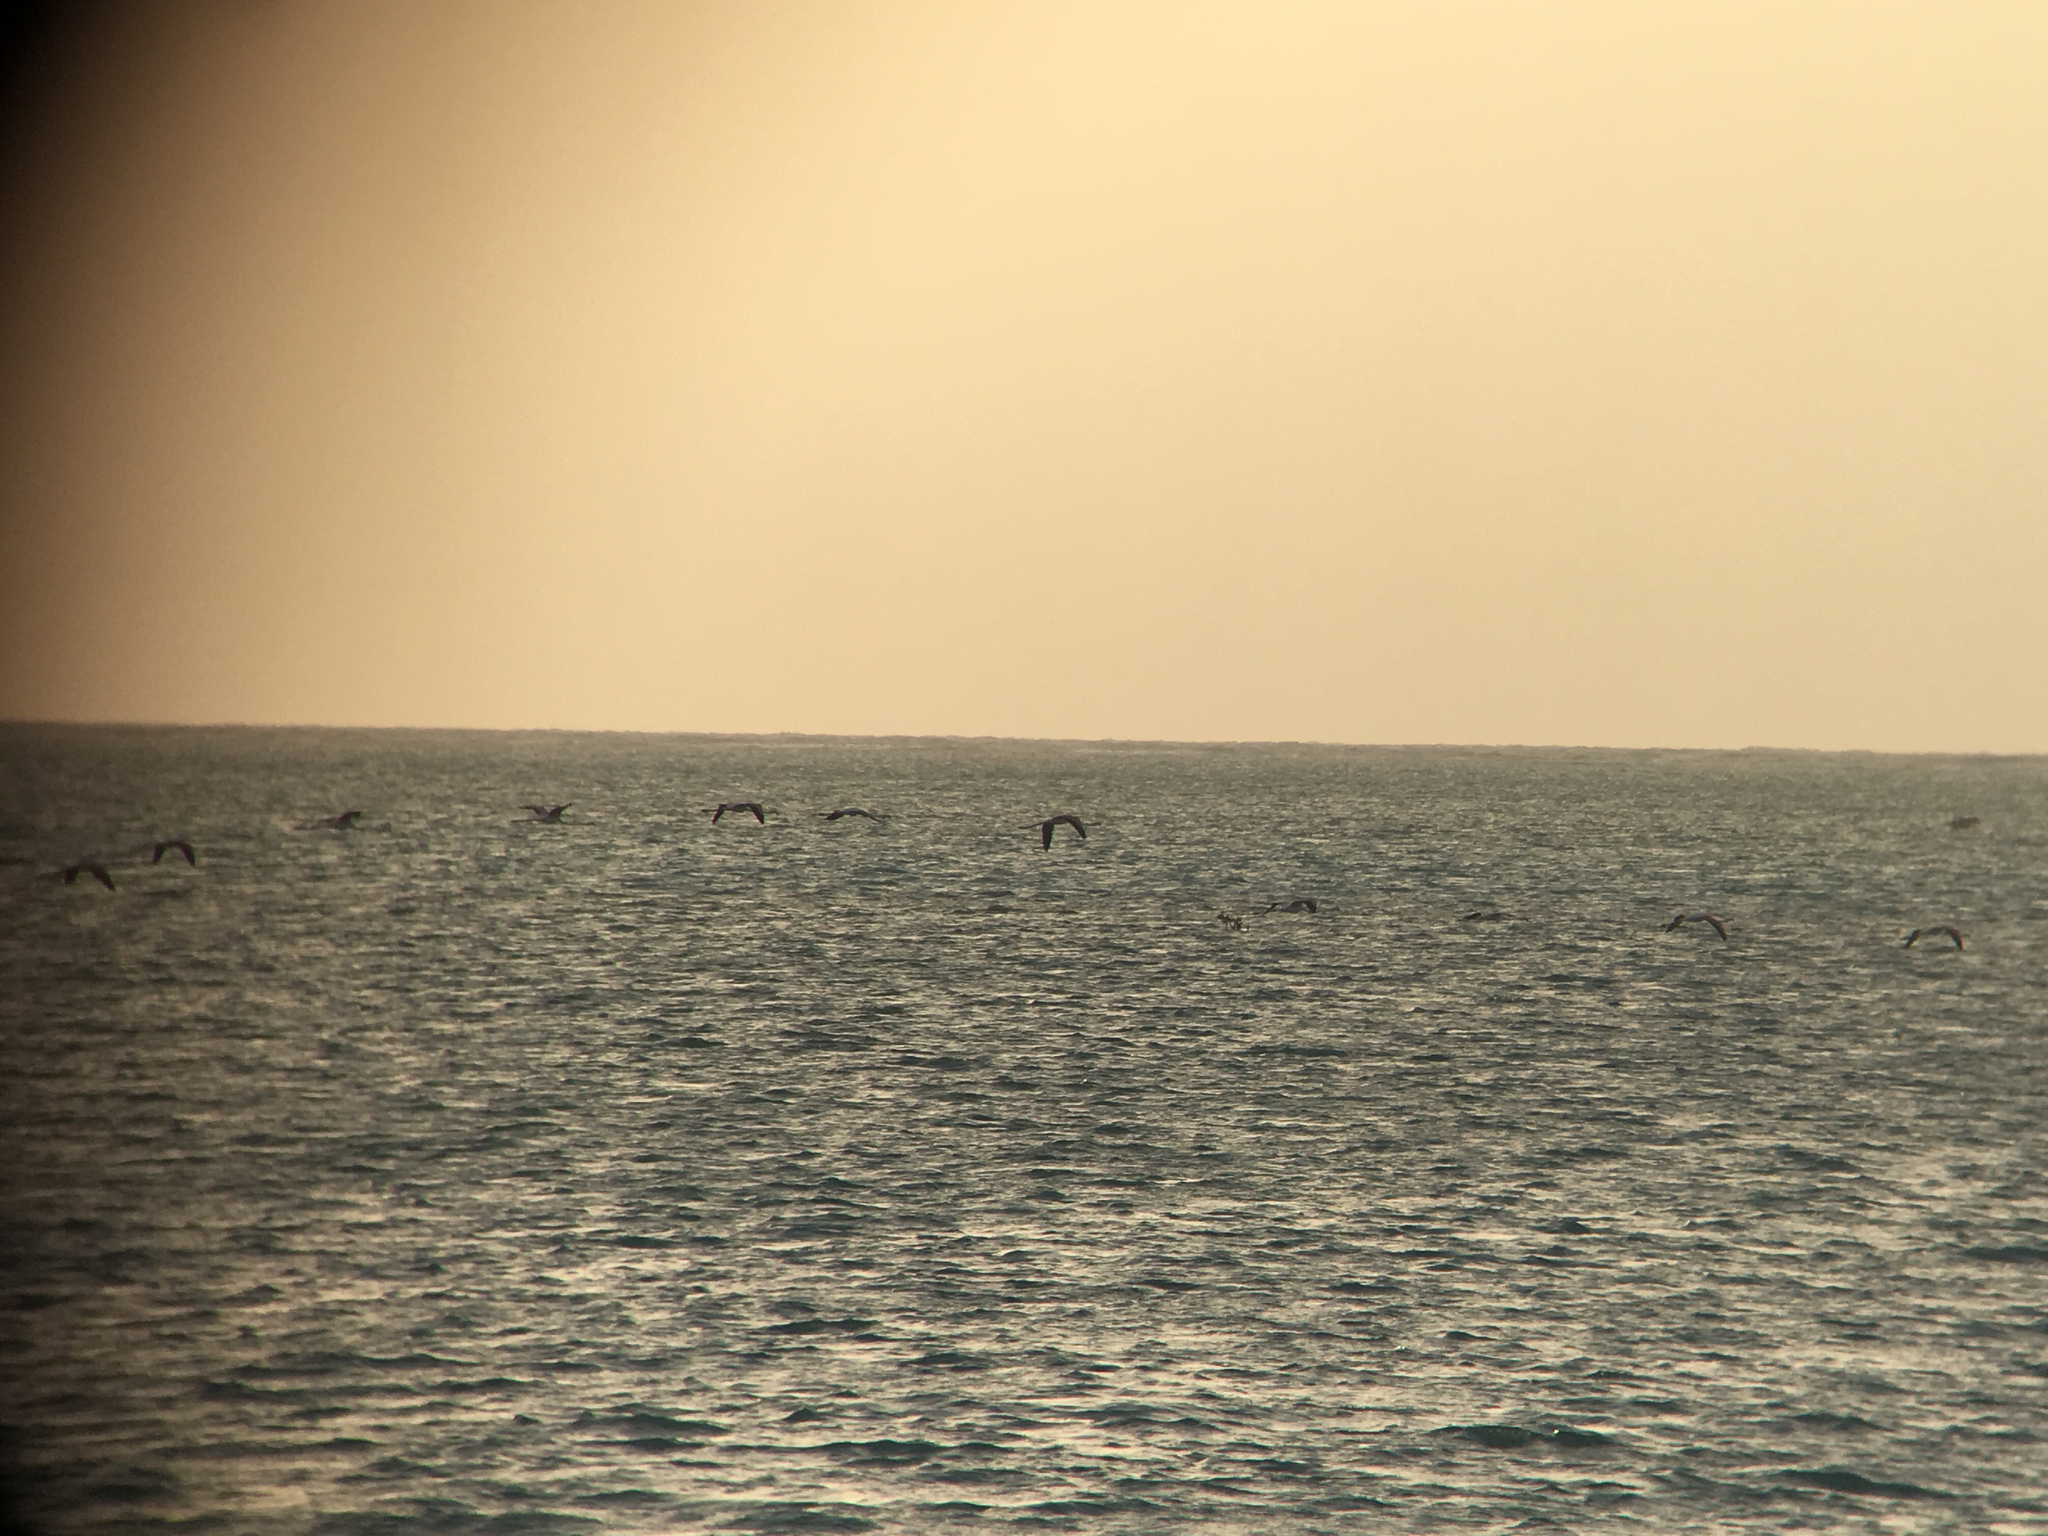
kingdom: Animalia
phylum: Chordata
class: Aves
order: Phoenicopteriformes
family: Phoenicopteridae
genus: Phoenicopterus
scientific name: Phoenicopterus roseus
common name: Greater flamingo
